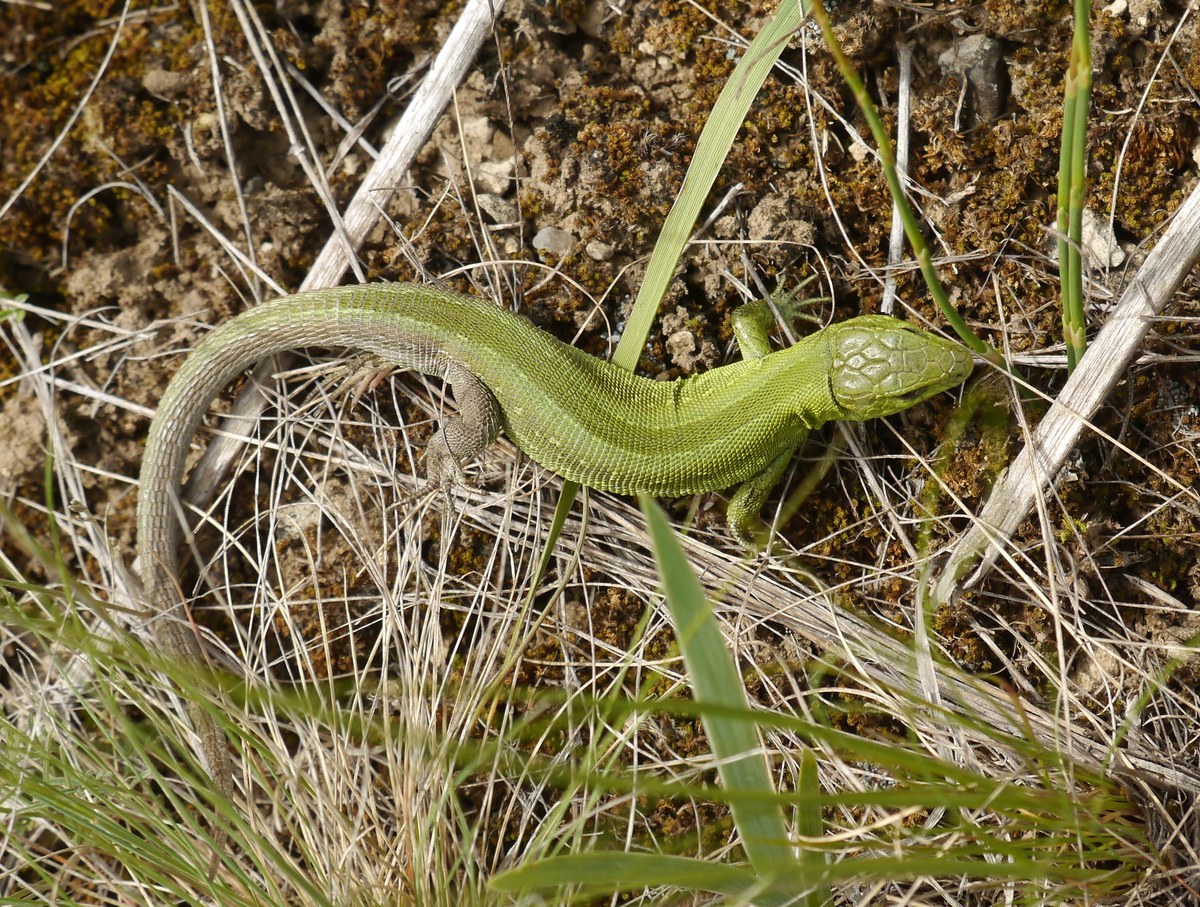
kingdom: Animalia
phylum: Chordata
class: Squamata
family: Lacertidae
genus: Lacerta
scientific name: Lacerta agilis
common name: Sand lizard
